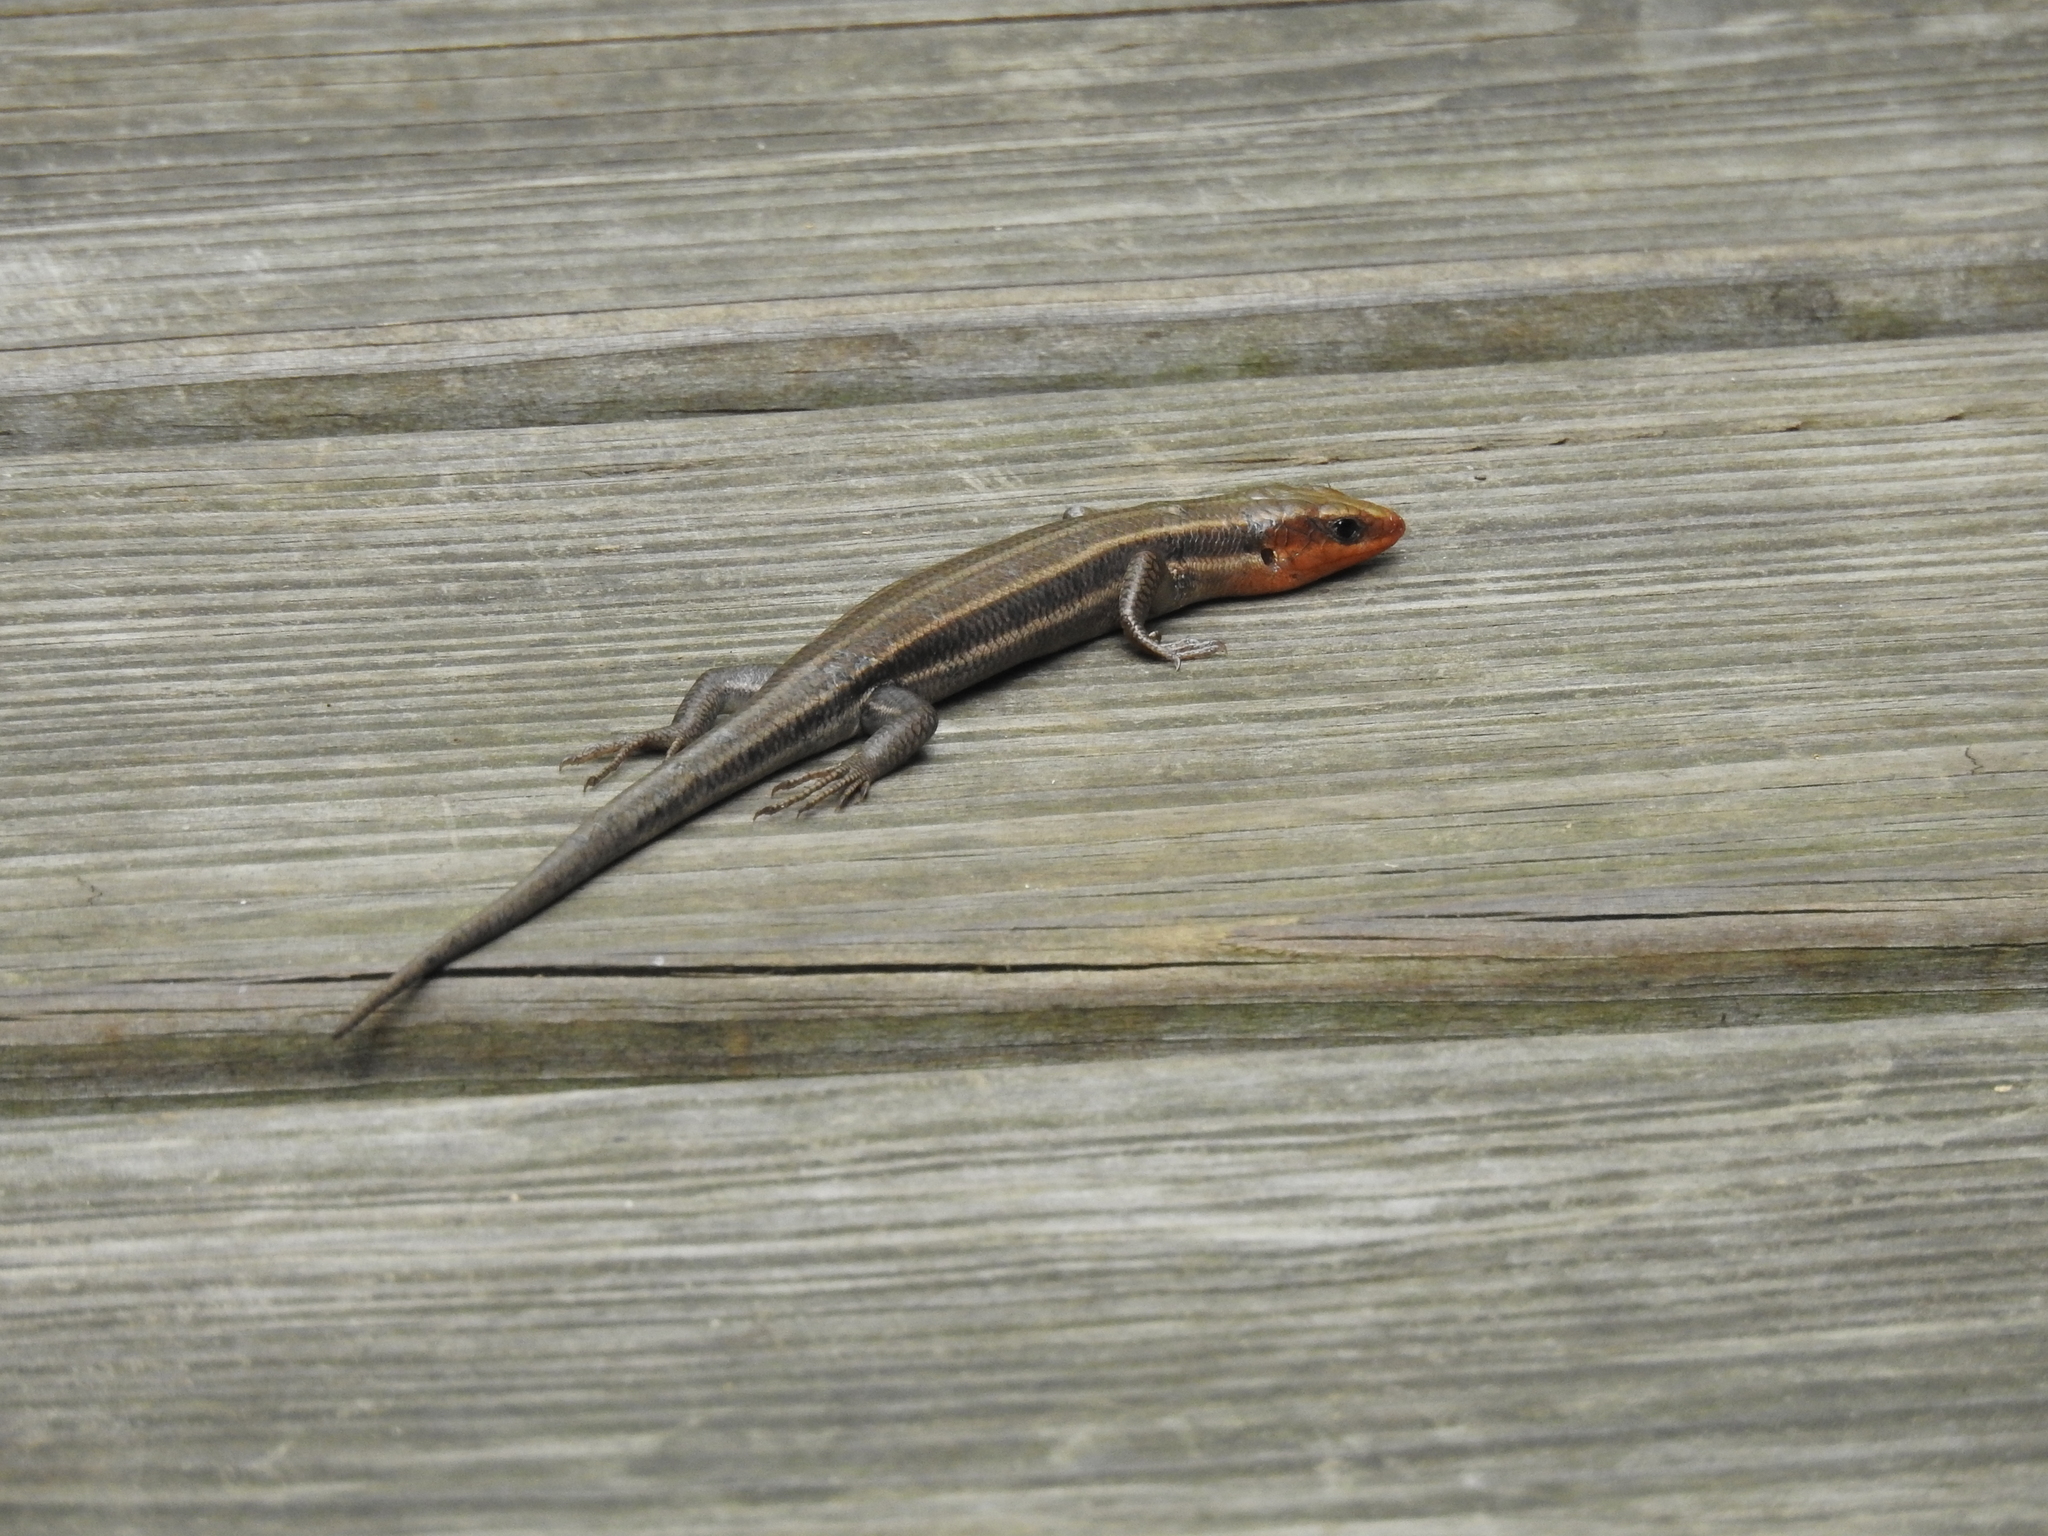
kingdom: Animalia
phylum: Chordata
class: Squamata
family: Scincidae
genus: Plestiodon
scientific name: Plestiodon fasciatus
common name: Five-lined skink
